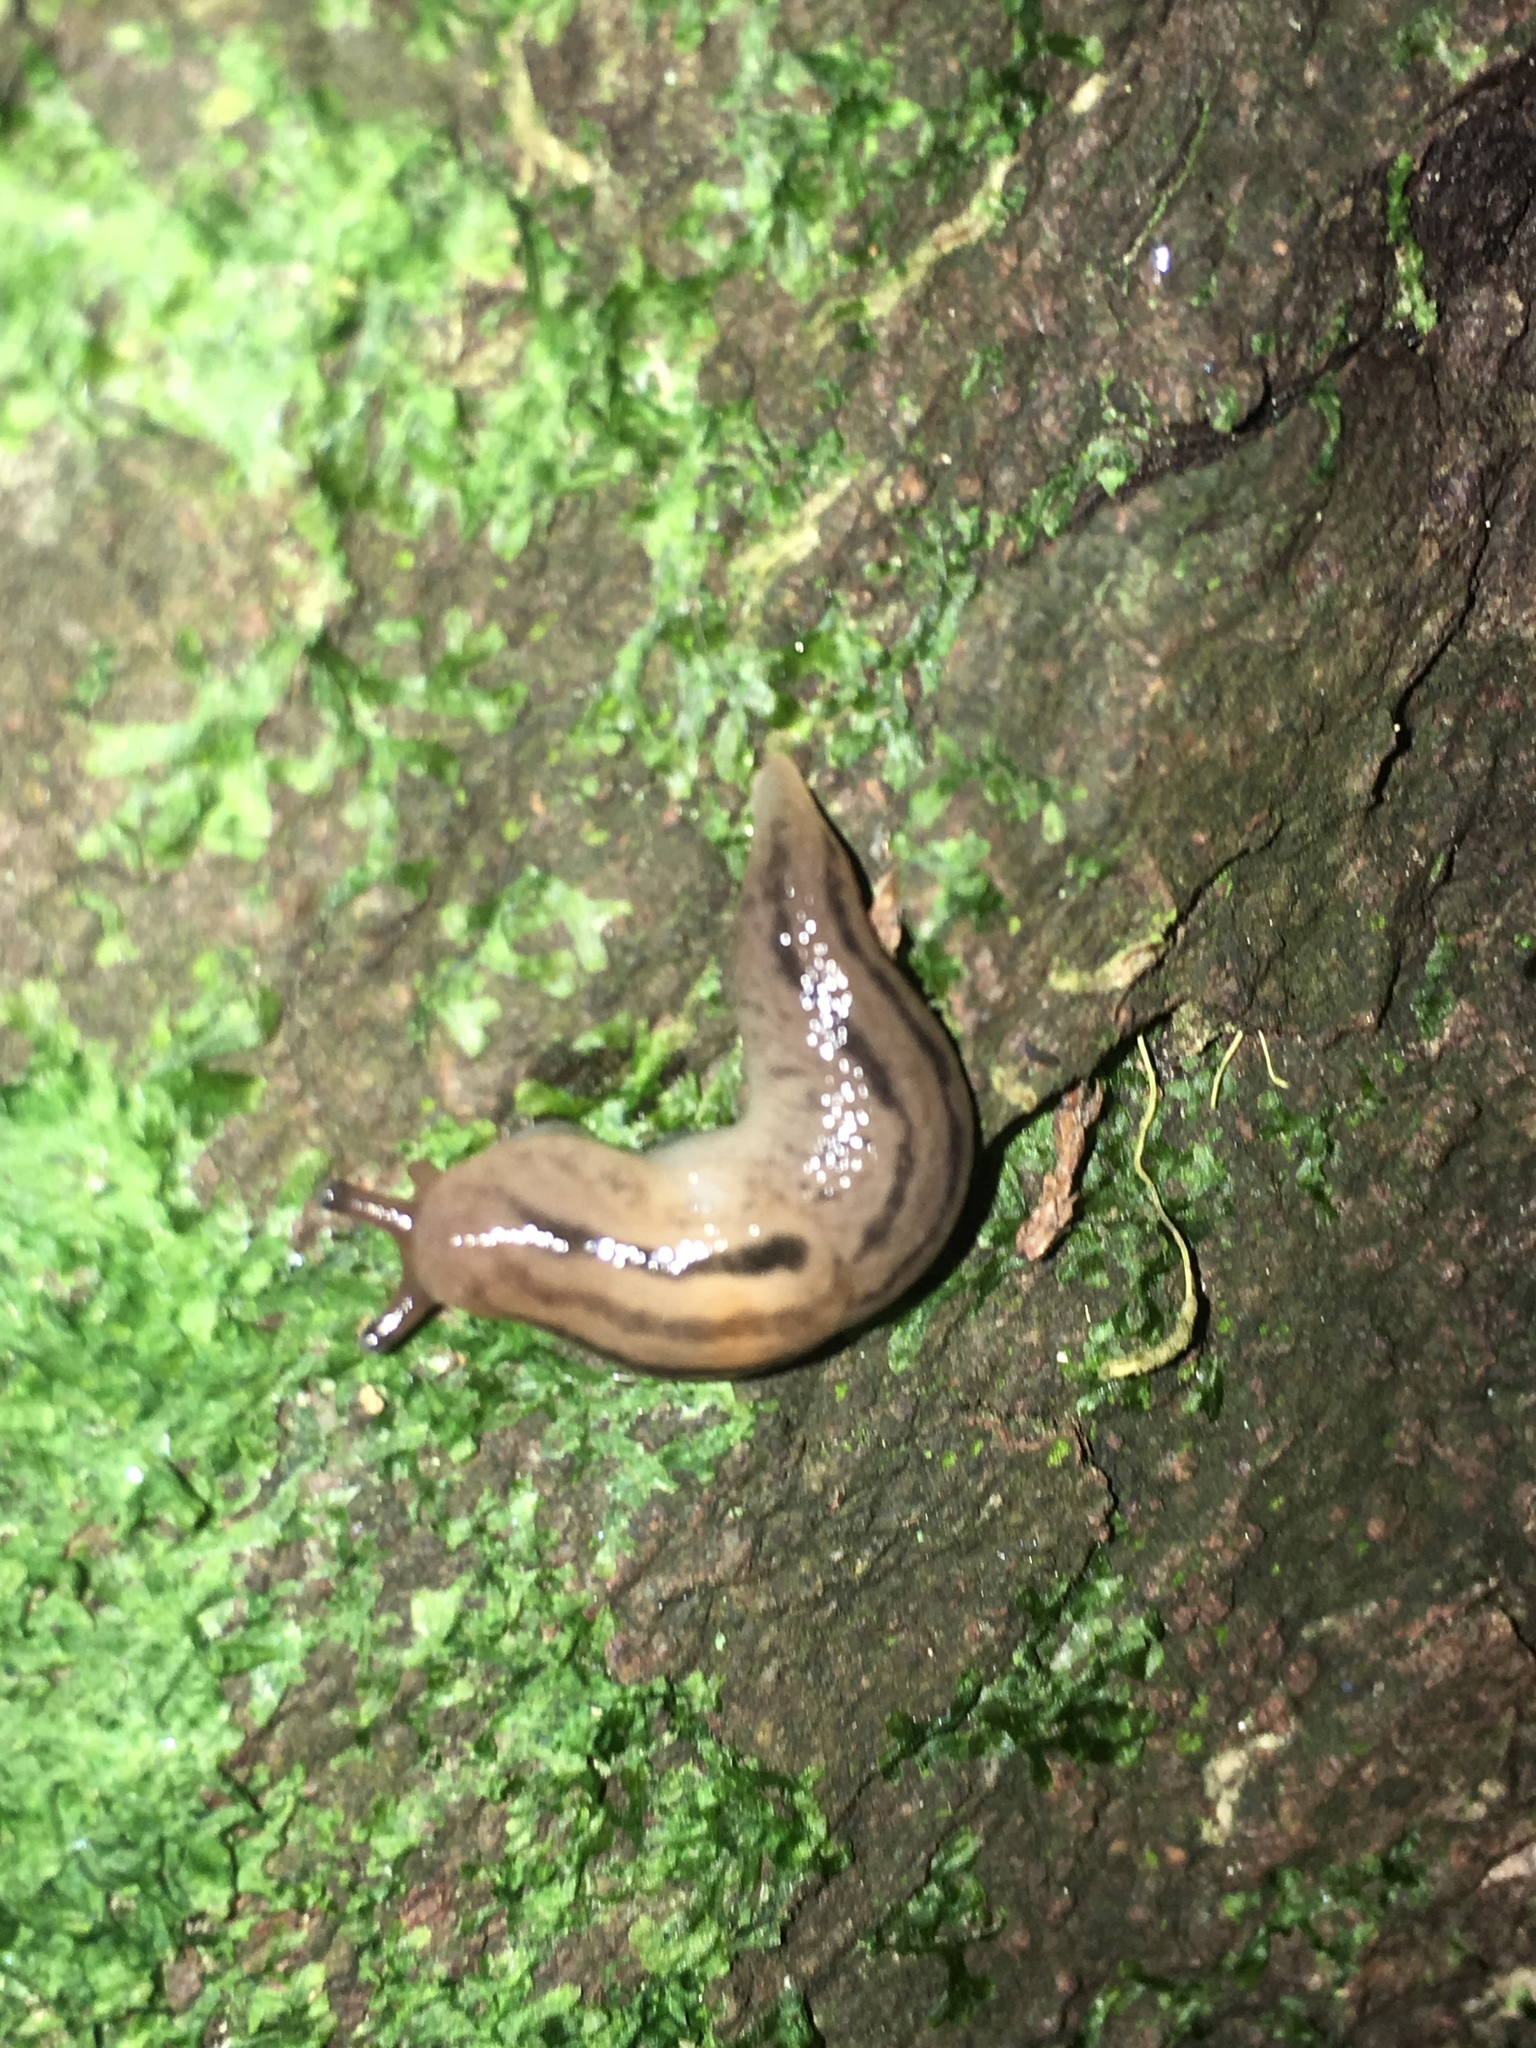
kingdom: Animalia
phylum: Mollusca
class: Gastropoda
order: Stylommatophora
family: Limacidae
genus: Ambigolimax
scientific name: Ambigolimax
